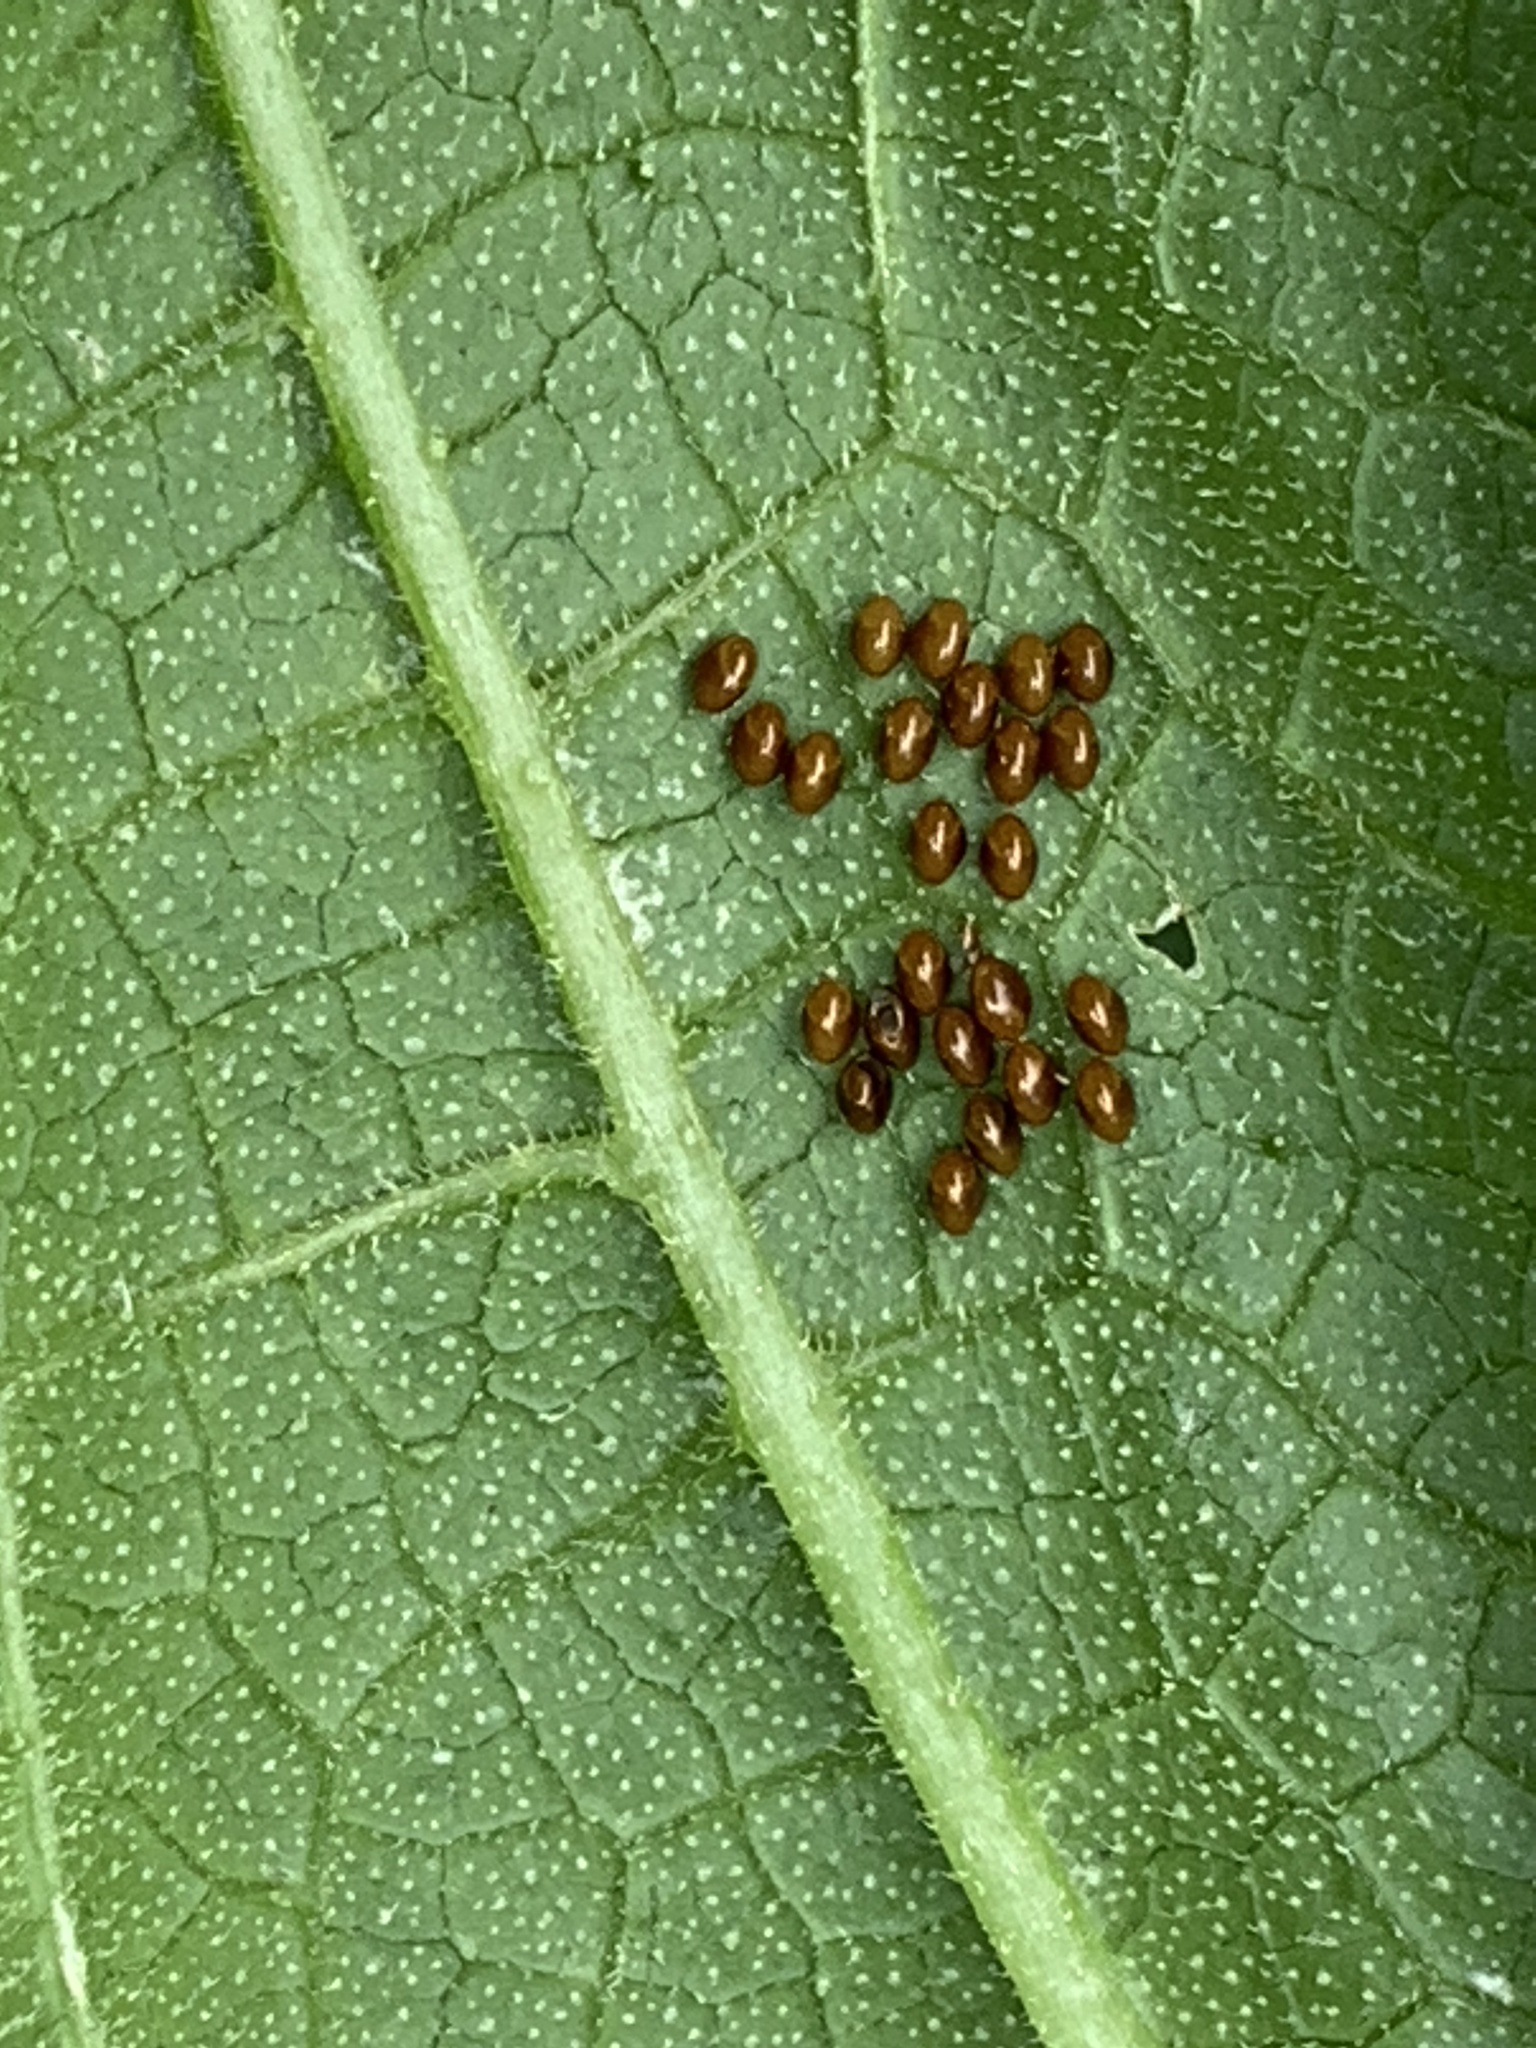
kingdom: Animalia
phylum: Arthropoda
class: Insecta
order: Hemiptera
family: Coreidae
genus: Anasa
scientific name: Anasa tristis
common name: Squash bug
